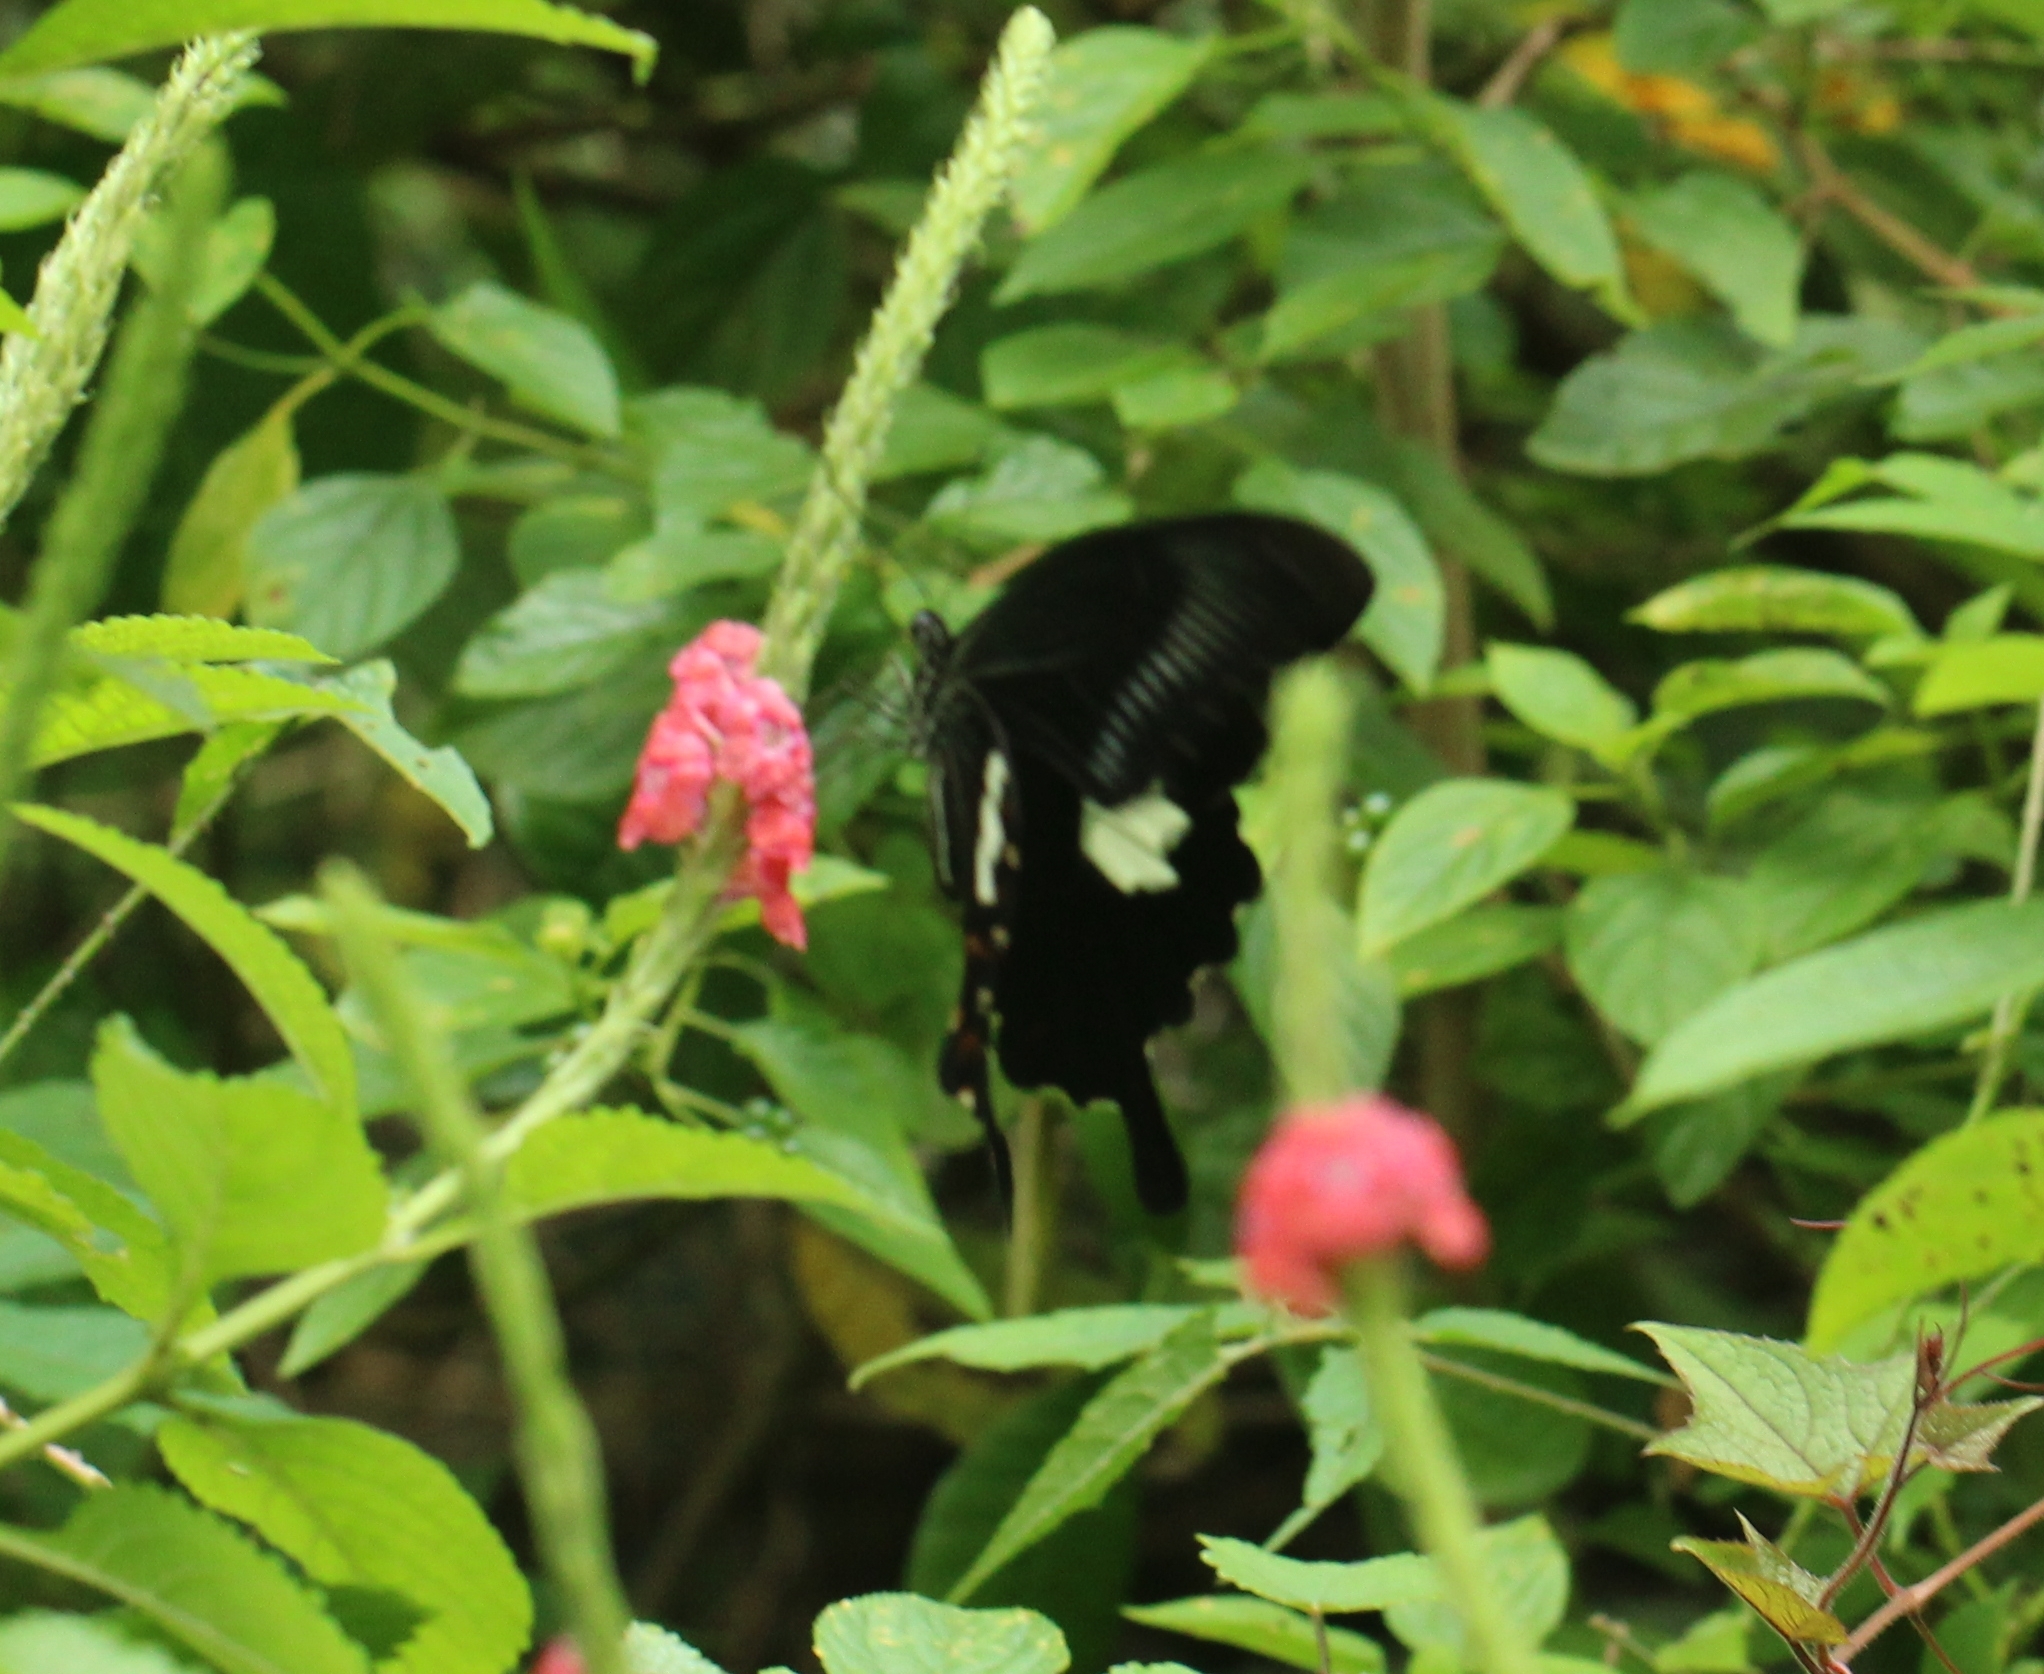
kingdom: Animalia
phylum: Arthropoda
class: Insecta
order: Lepidoptera
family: Papilionidae
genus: Papilio
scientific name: Papilio helenus
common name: Red helen
